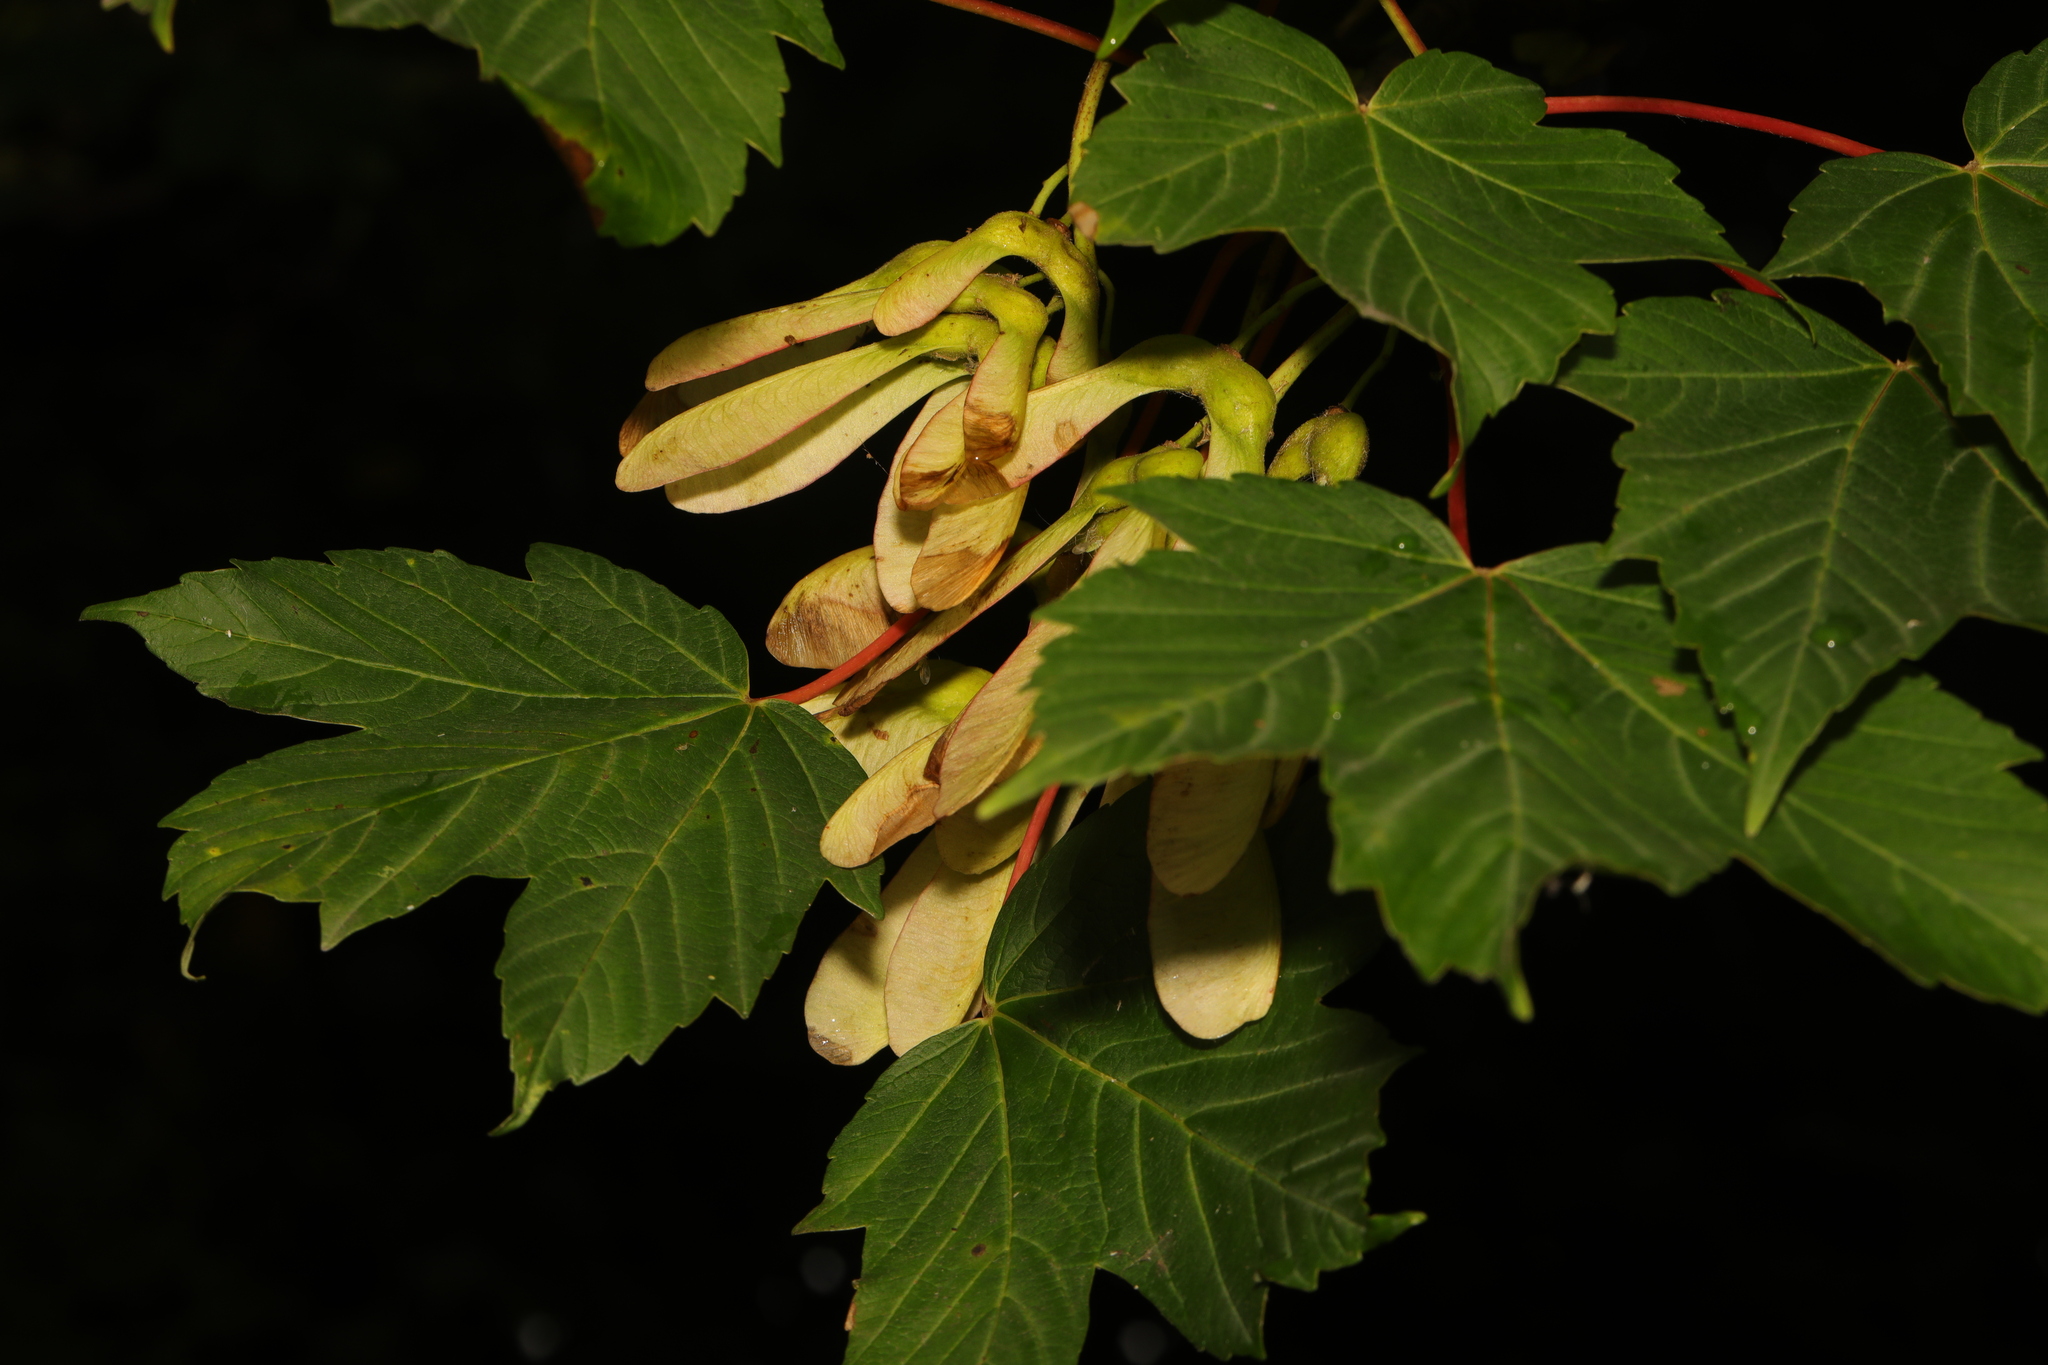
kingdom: Plantae
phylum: Tracheophyta
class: Magnoliopsida
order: Sapindales
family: Sapindaceae
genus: Acer
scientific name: Acer pseudoplatanus
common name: Sycamore
